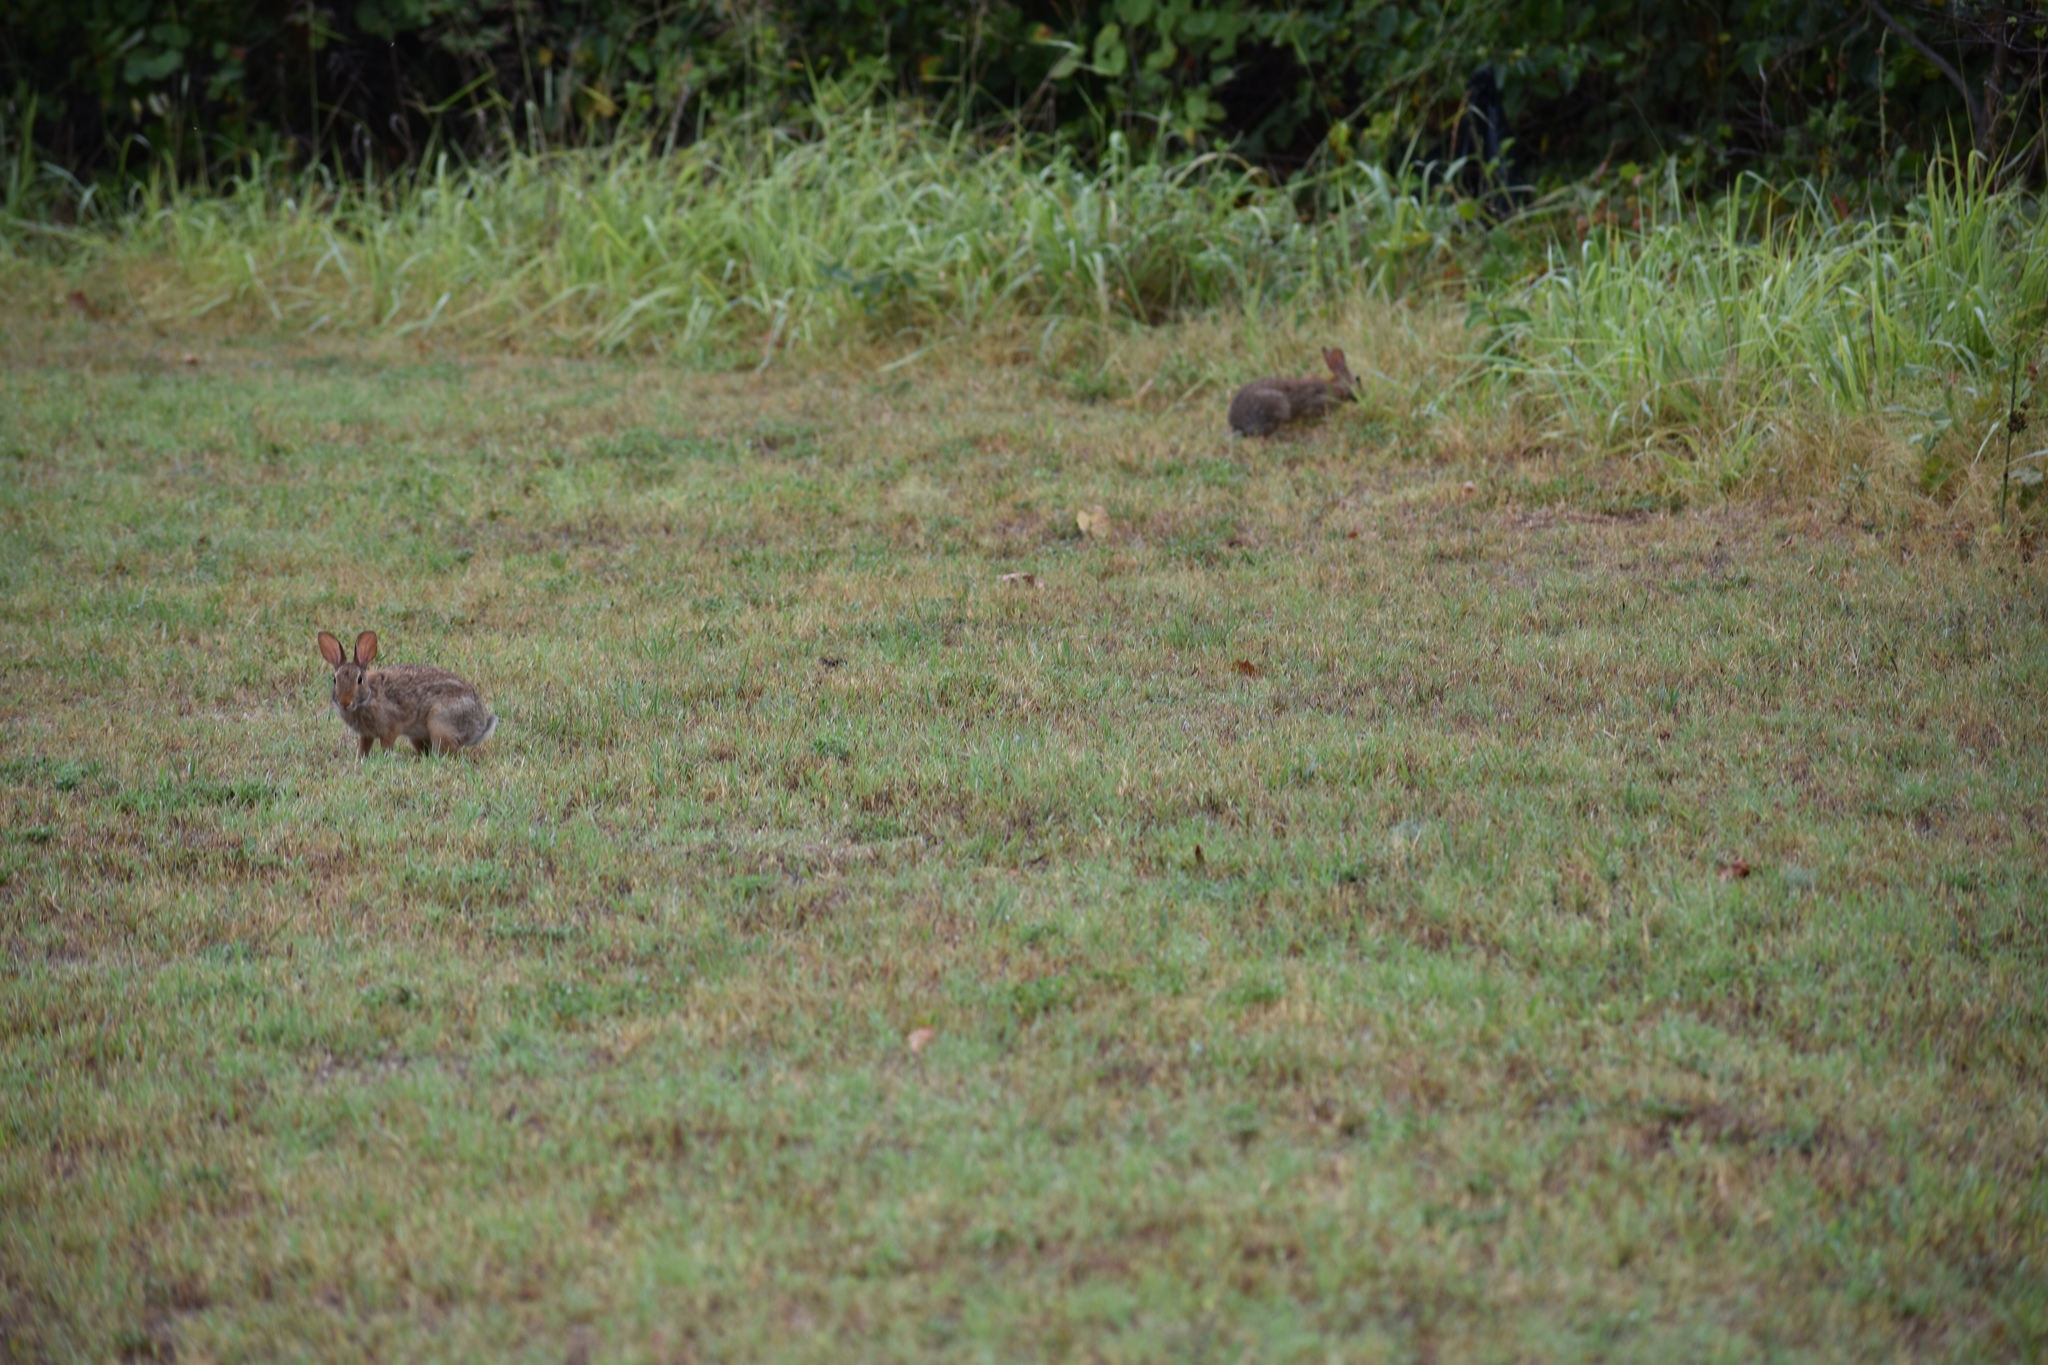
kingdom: Animalia
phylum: Chordata
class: Mammalia
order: Lagomorpha
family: Leporidae
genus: Sylvilagus
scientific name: Sylvilagus floridanus
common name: Eastern cottontail
